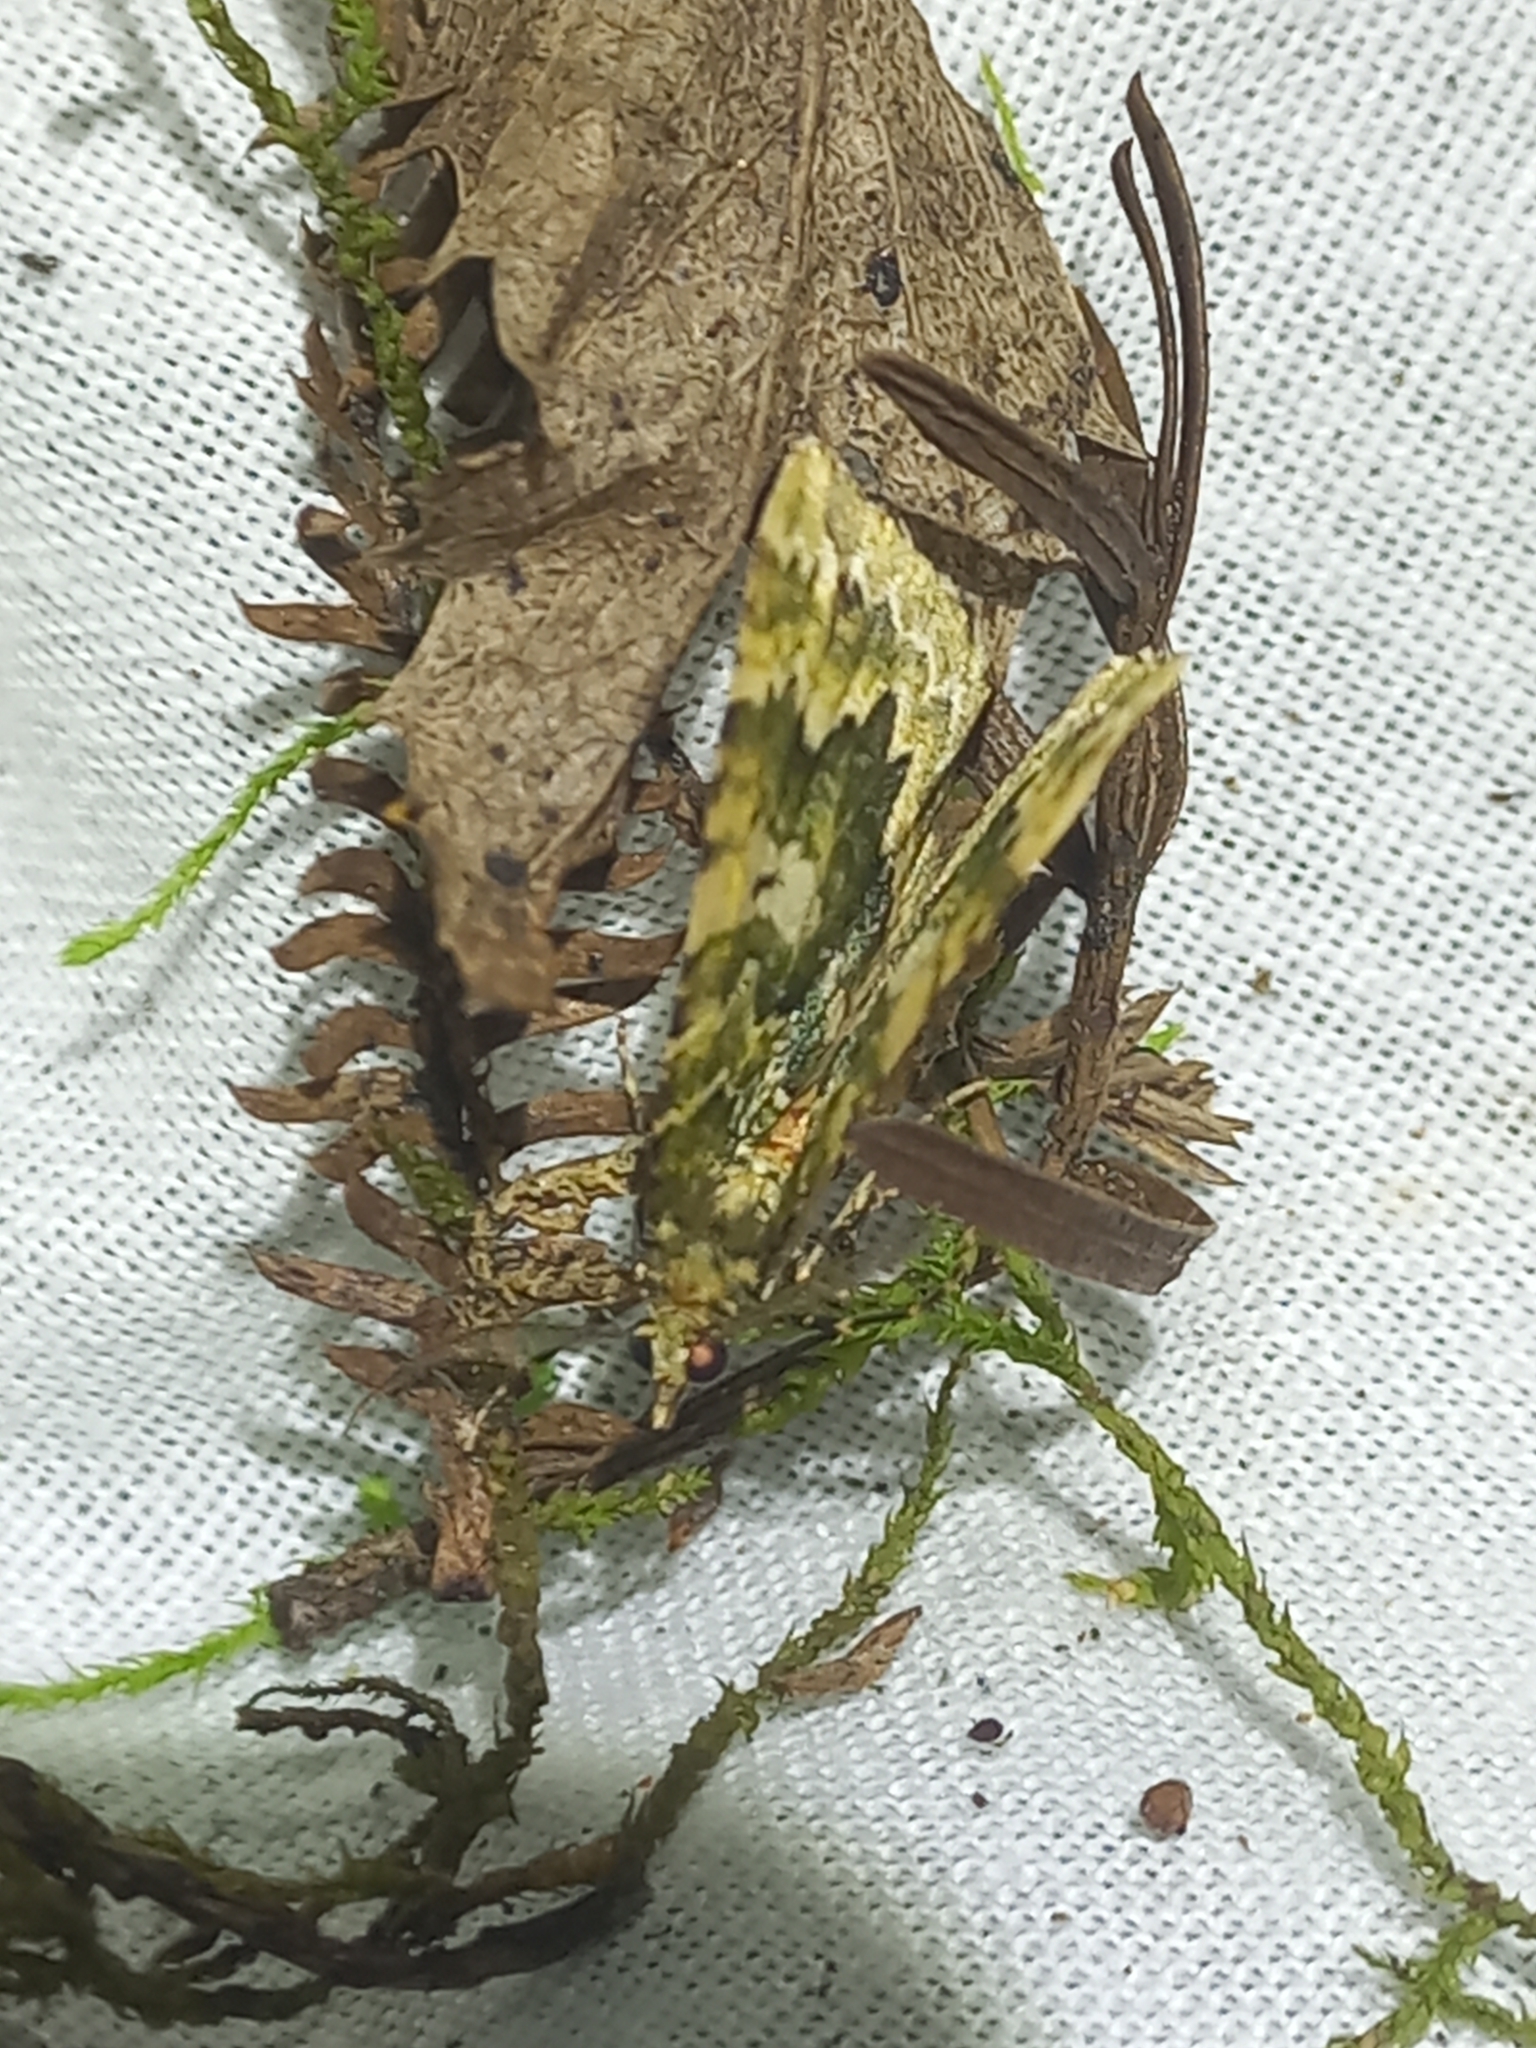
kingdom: Animalia
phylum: Arthropoda
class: Insecta
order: Lepidoptera
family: Geometridae
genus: Asaphodes
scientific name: Asaphodes beata
